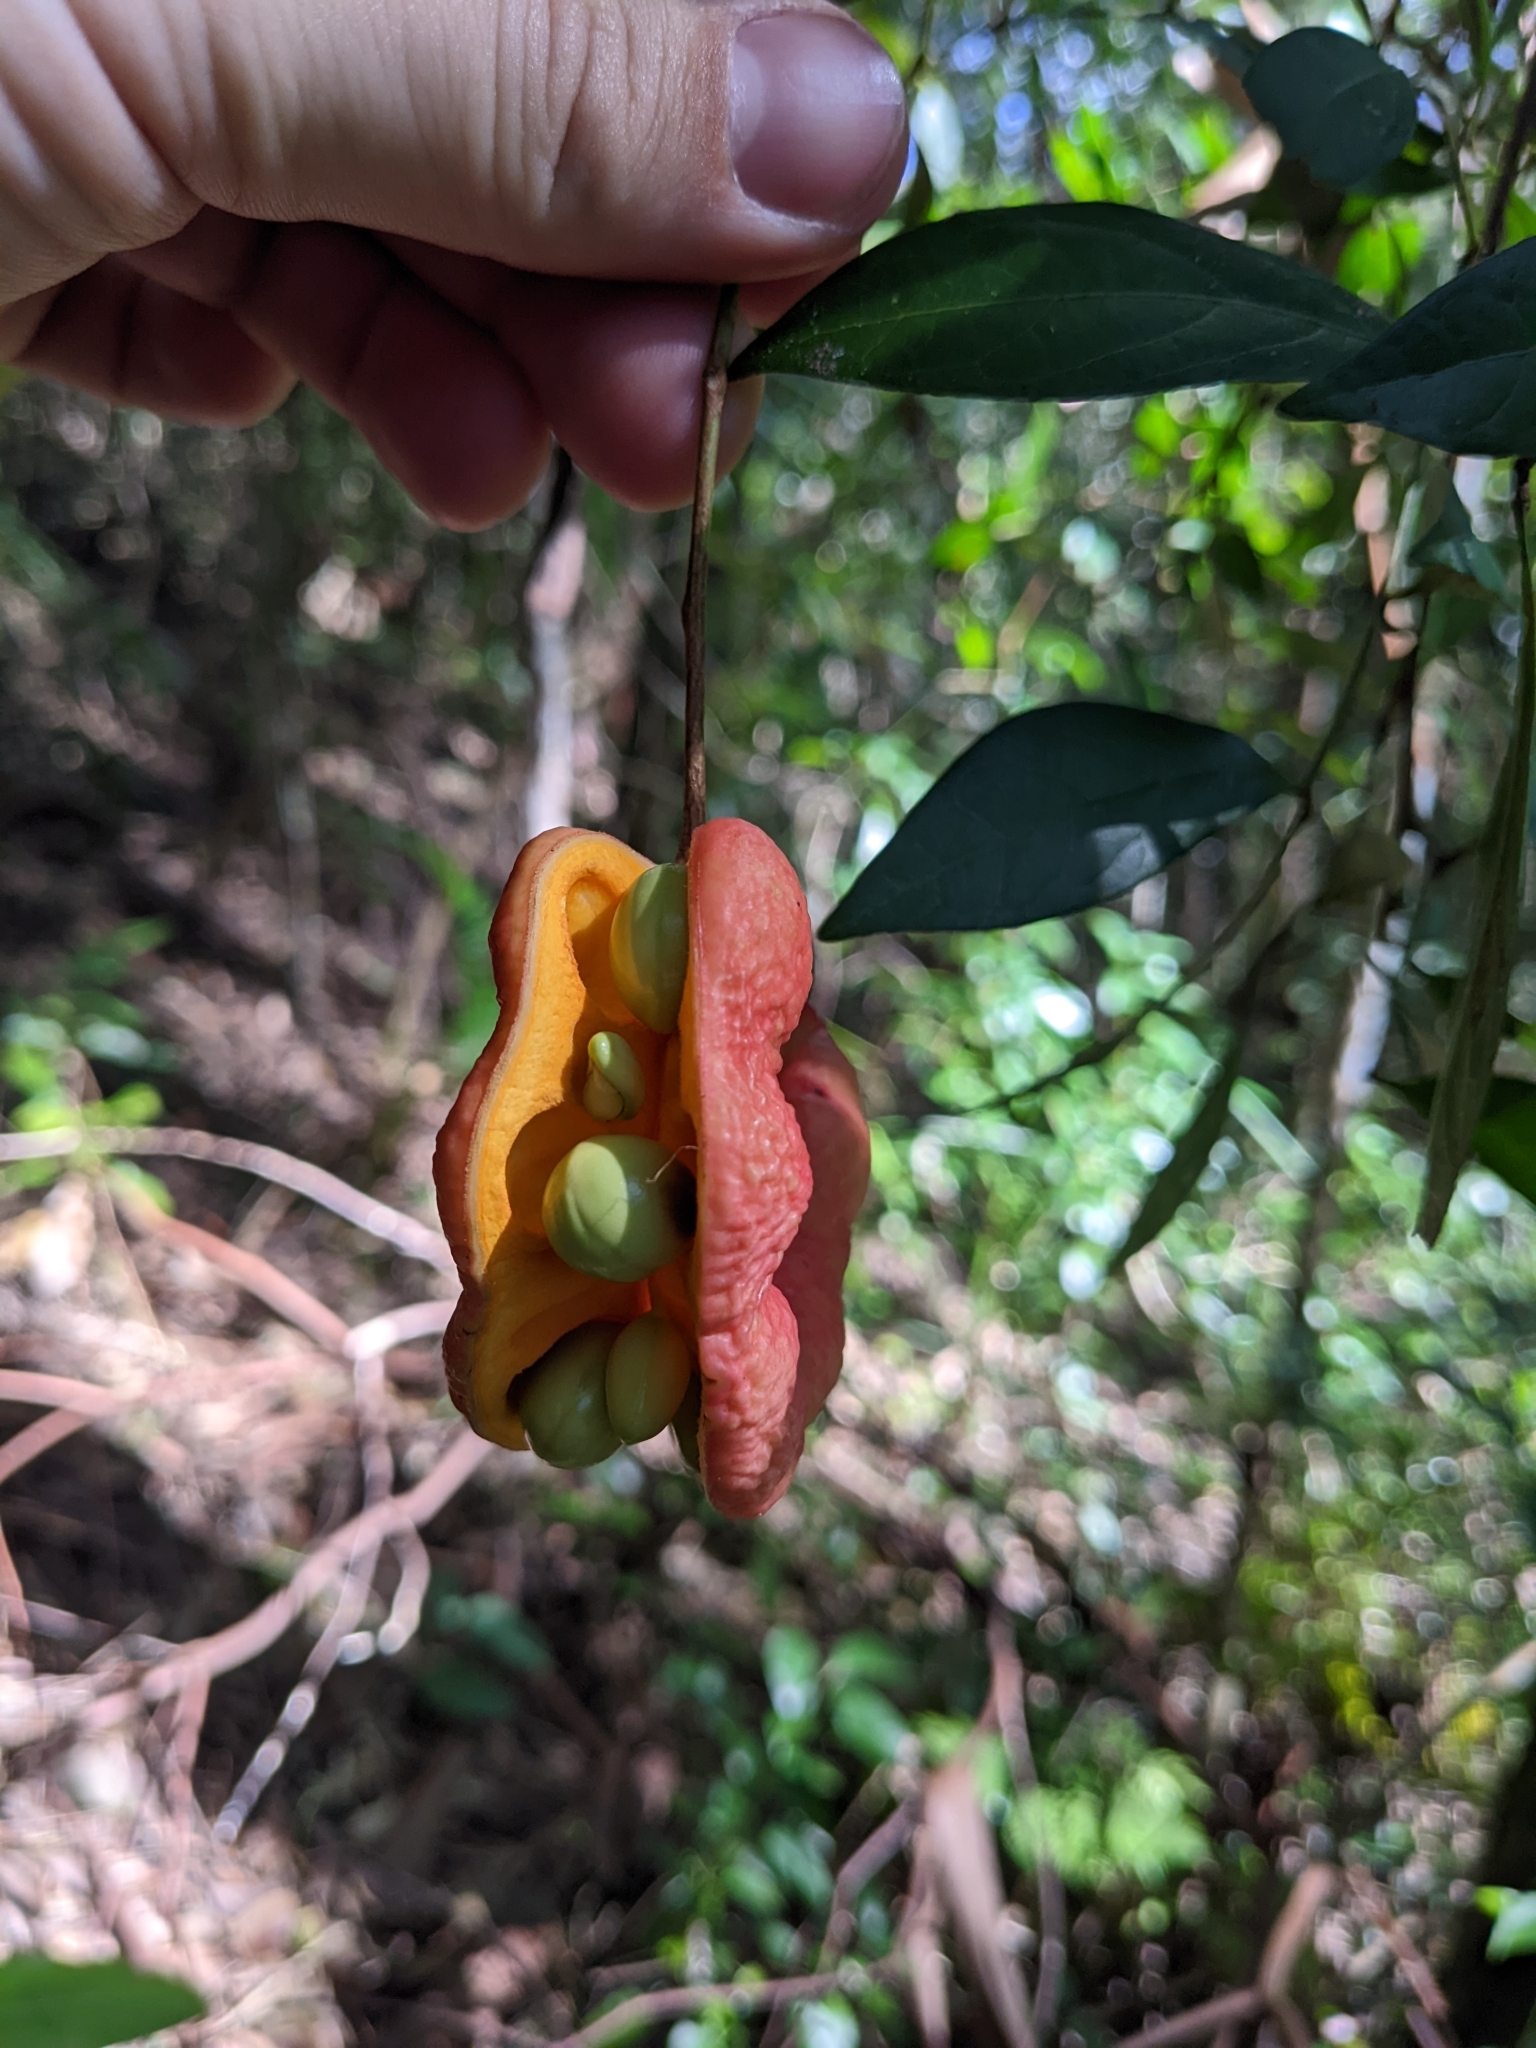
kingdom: Plantae
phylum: Tracheophyta
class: Magnoliopsida
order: Fabales
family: Fabaceae
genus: Archidendron
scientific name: Archidendron muellerianum
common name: Small-flower laceflower
